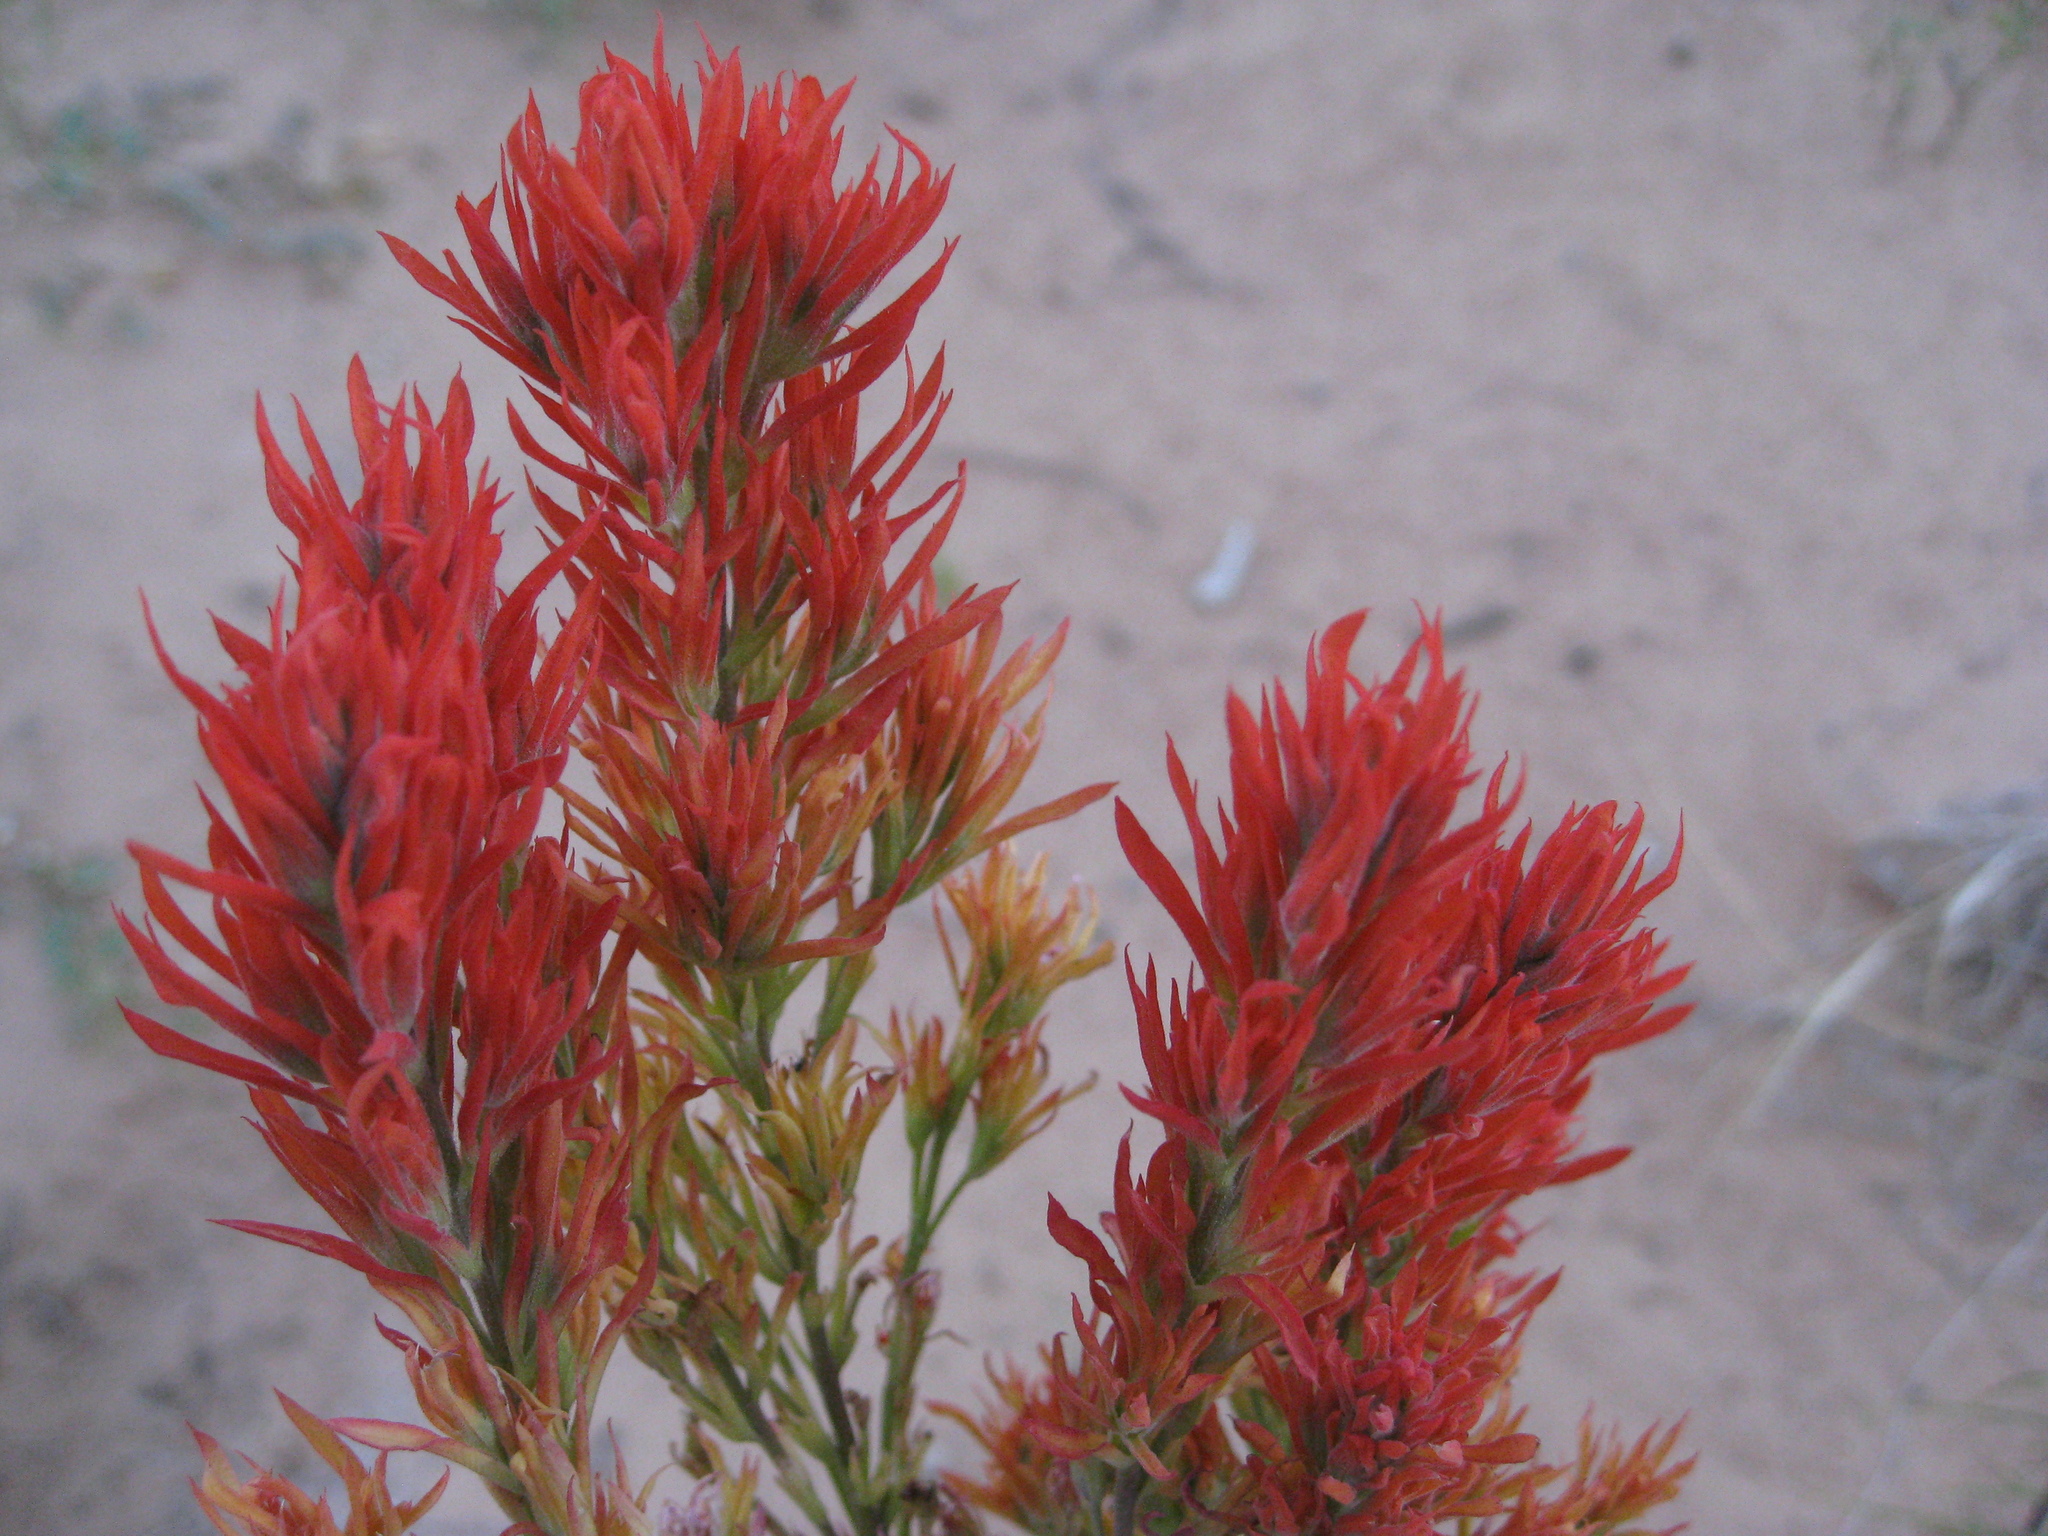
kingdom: Plantae
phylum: Tracheophyta
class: Magnoliopsida
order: Lamiales
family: Orobanchaceae
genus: Castilleja
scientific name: Castilleja linariifolia
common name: Wyoming paintbrush
